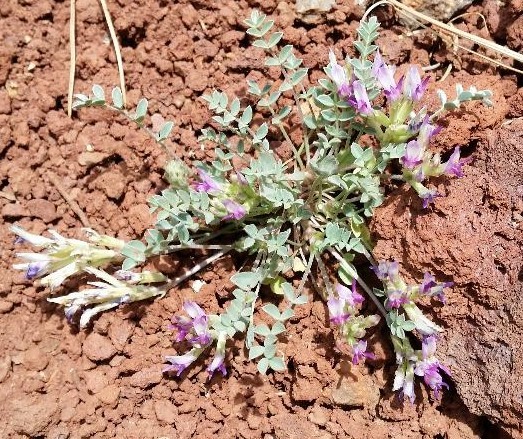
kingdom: Plantae
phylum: Tracheophyta
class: Magnoliopsida
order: Fabales
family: Fabaceae
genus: Astragalus
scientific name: Astragalus calycosus
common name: King's milkvetch
